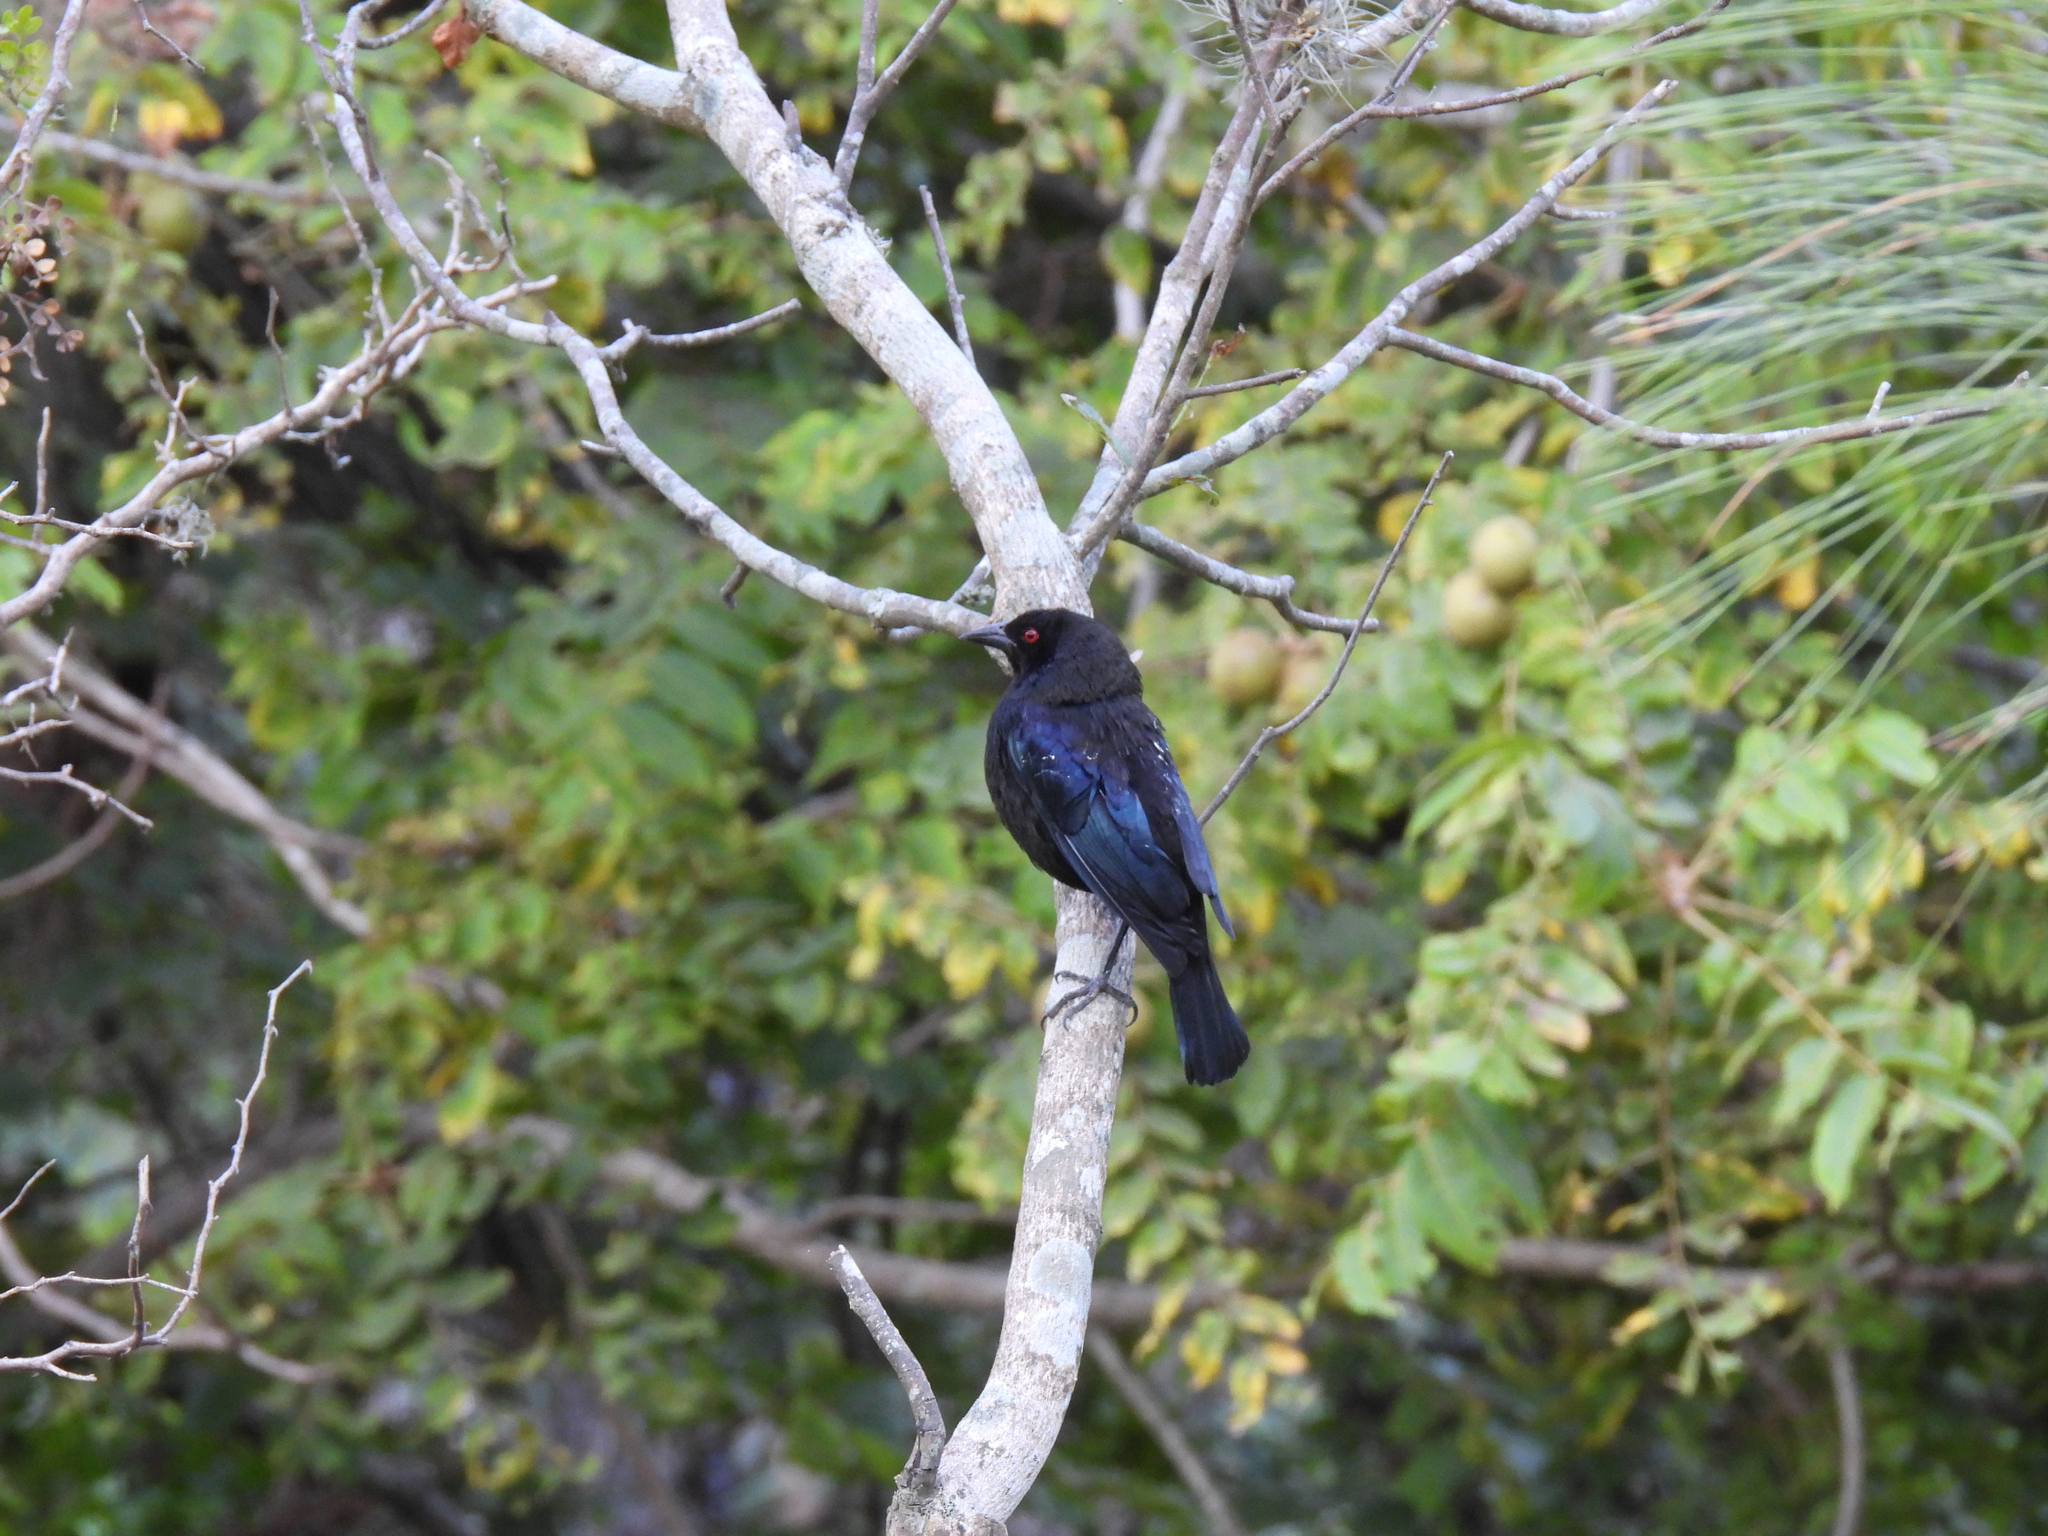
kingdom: Animalia
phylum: Chordata
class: Aves
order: Passeriformes
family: Icteridae
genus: Molothrus
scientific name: Molothrus aeneus
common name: Bronzed cowbird
